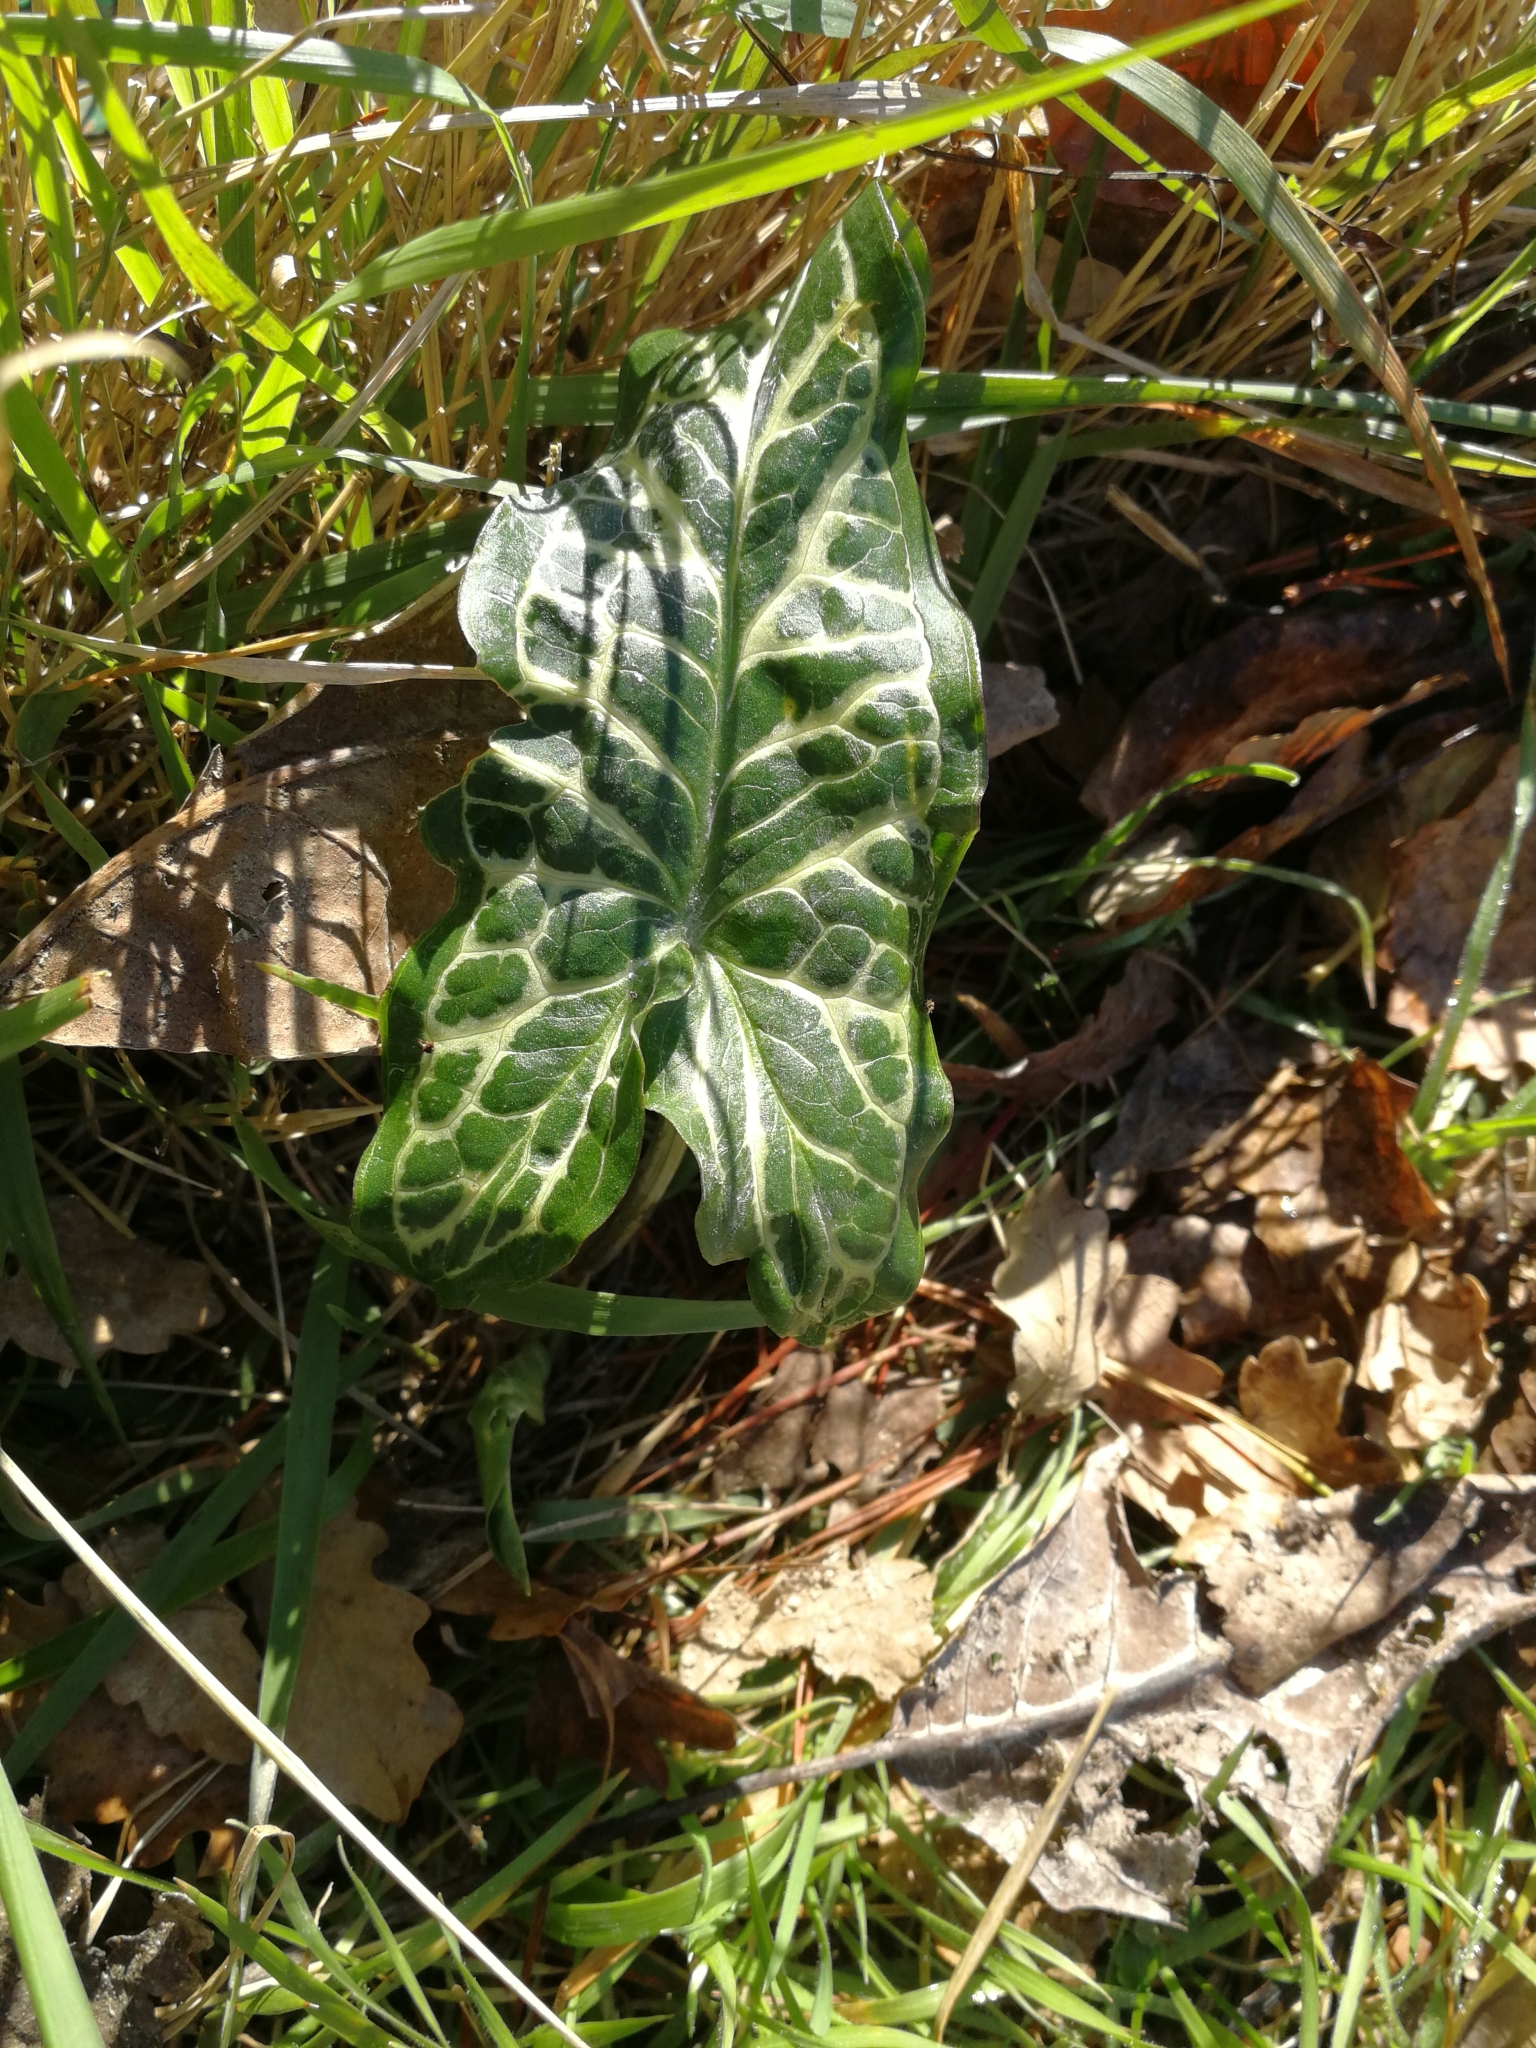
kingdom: Plantae
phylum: Tracheophyta
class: Liliopsida
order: Alismatales
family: Araceae
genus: Arum
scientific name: Arum italicum
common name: Italian lords-and-ladies
